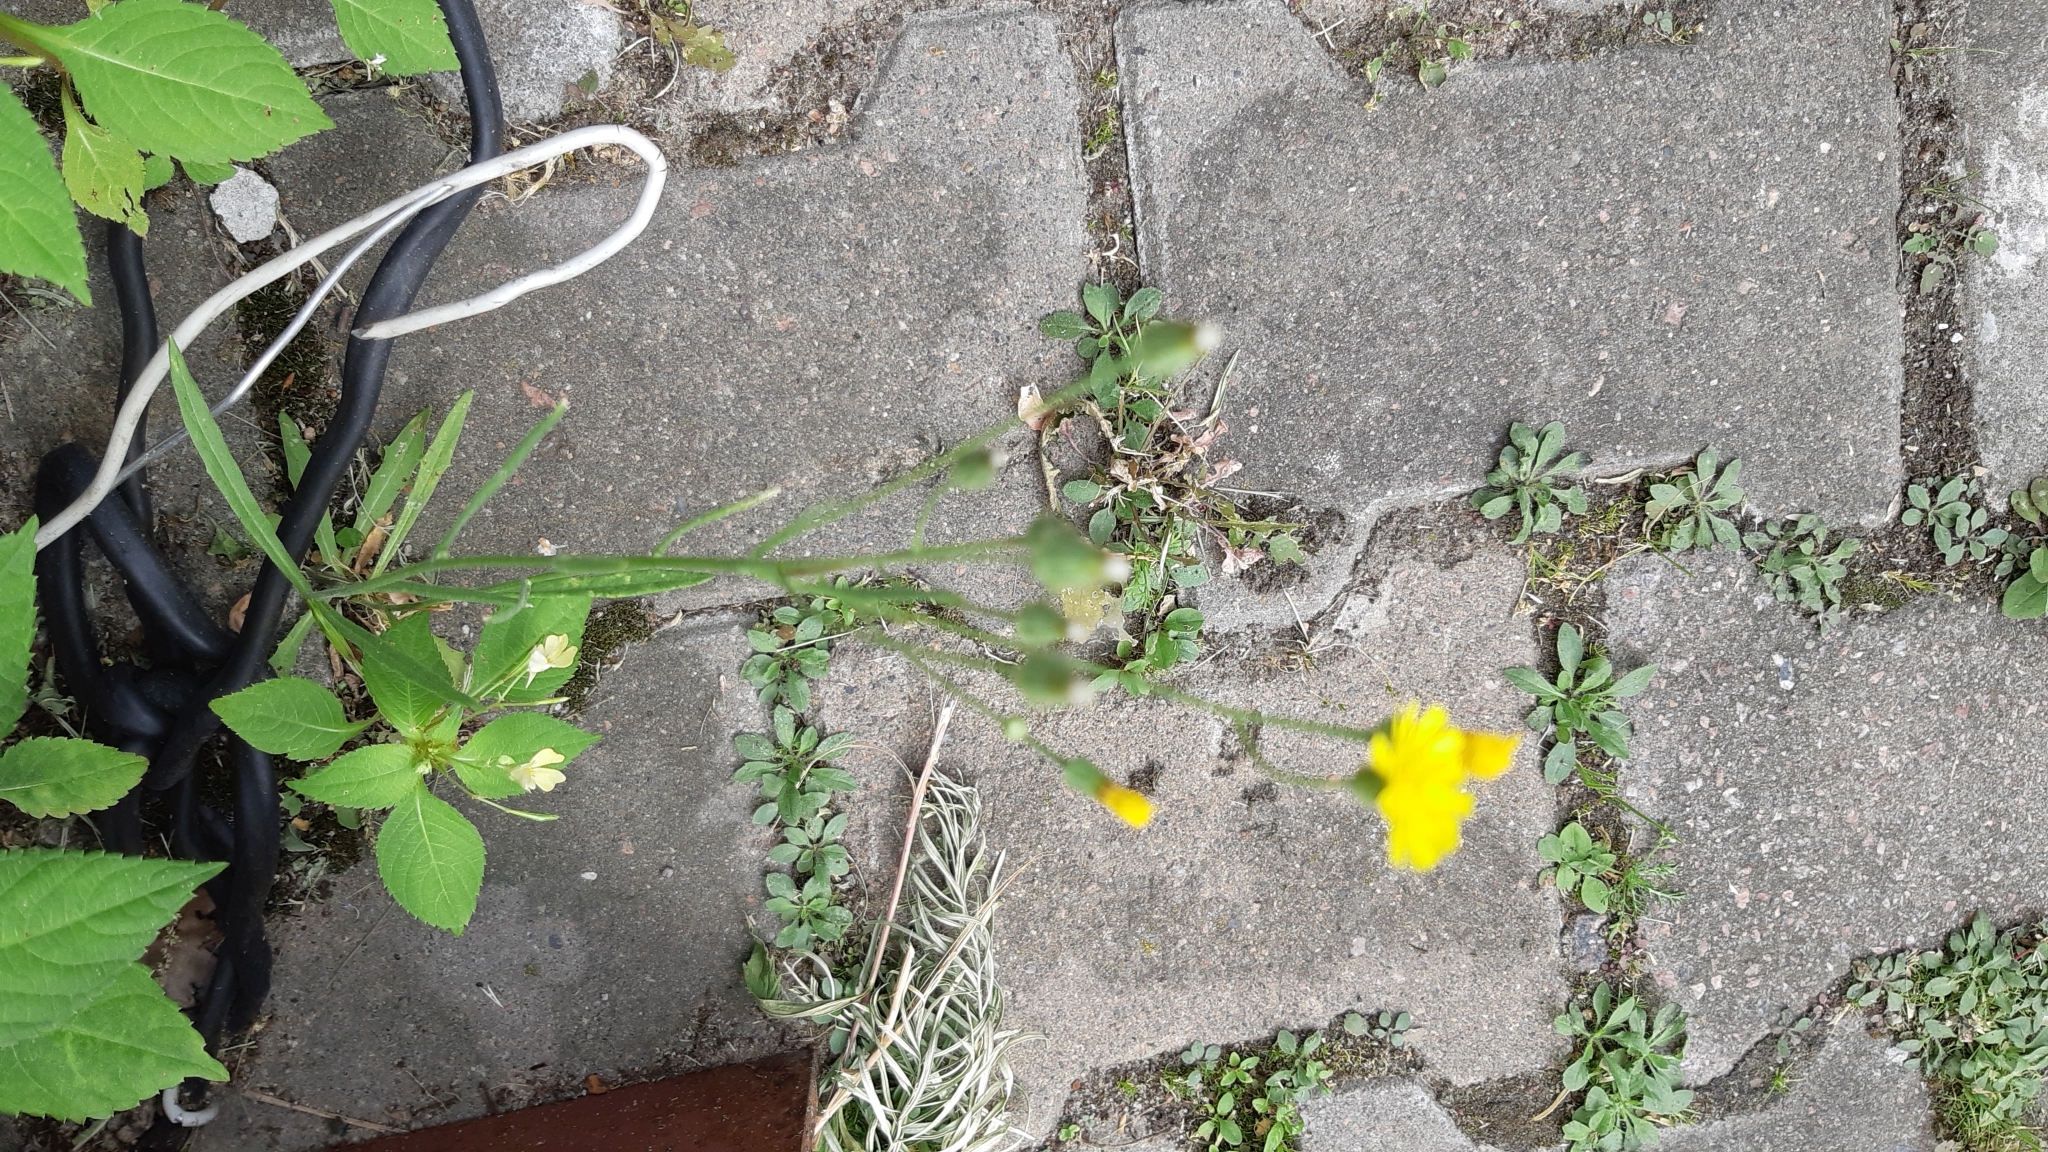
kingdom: Plantae
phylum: Tracheophyta
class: Magnoliopsida
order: Asterales
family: Asteraceae
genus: Crepis
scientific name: Crepis tectorum
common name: Narrow-leaved hawk's-beard
